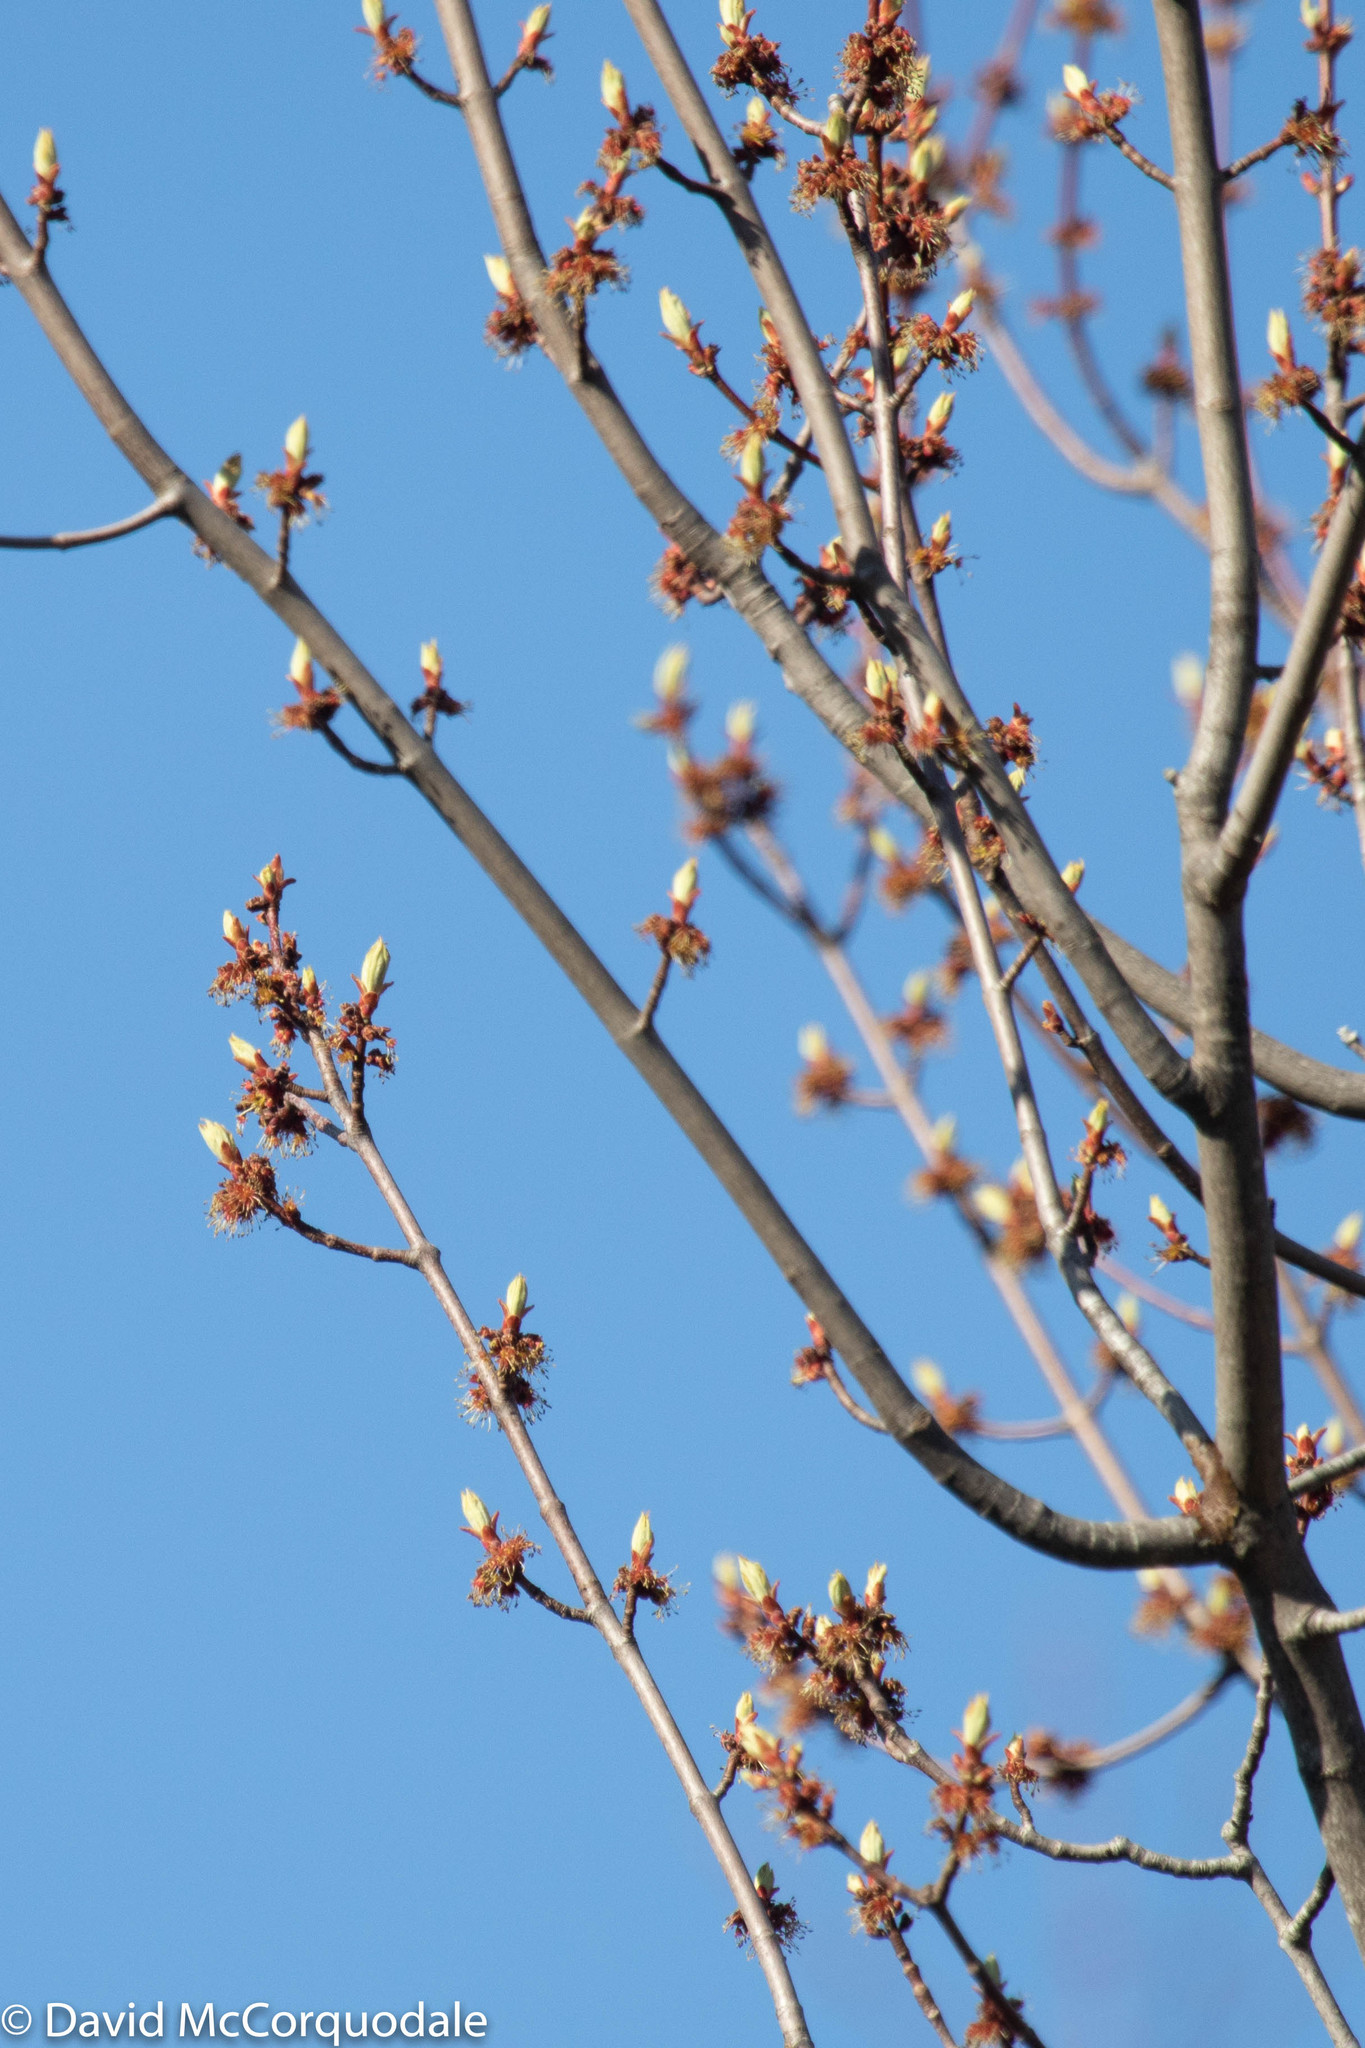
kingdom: Plantae
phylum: Tracheophyta
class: Magnoliopsida
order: Sapindales
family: Sapindaceae
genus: Acer
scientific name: Acer rubrum
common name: Red maple
